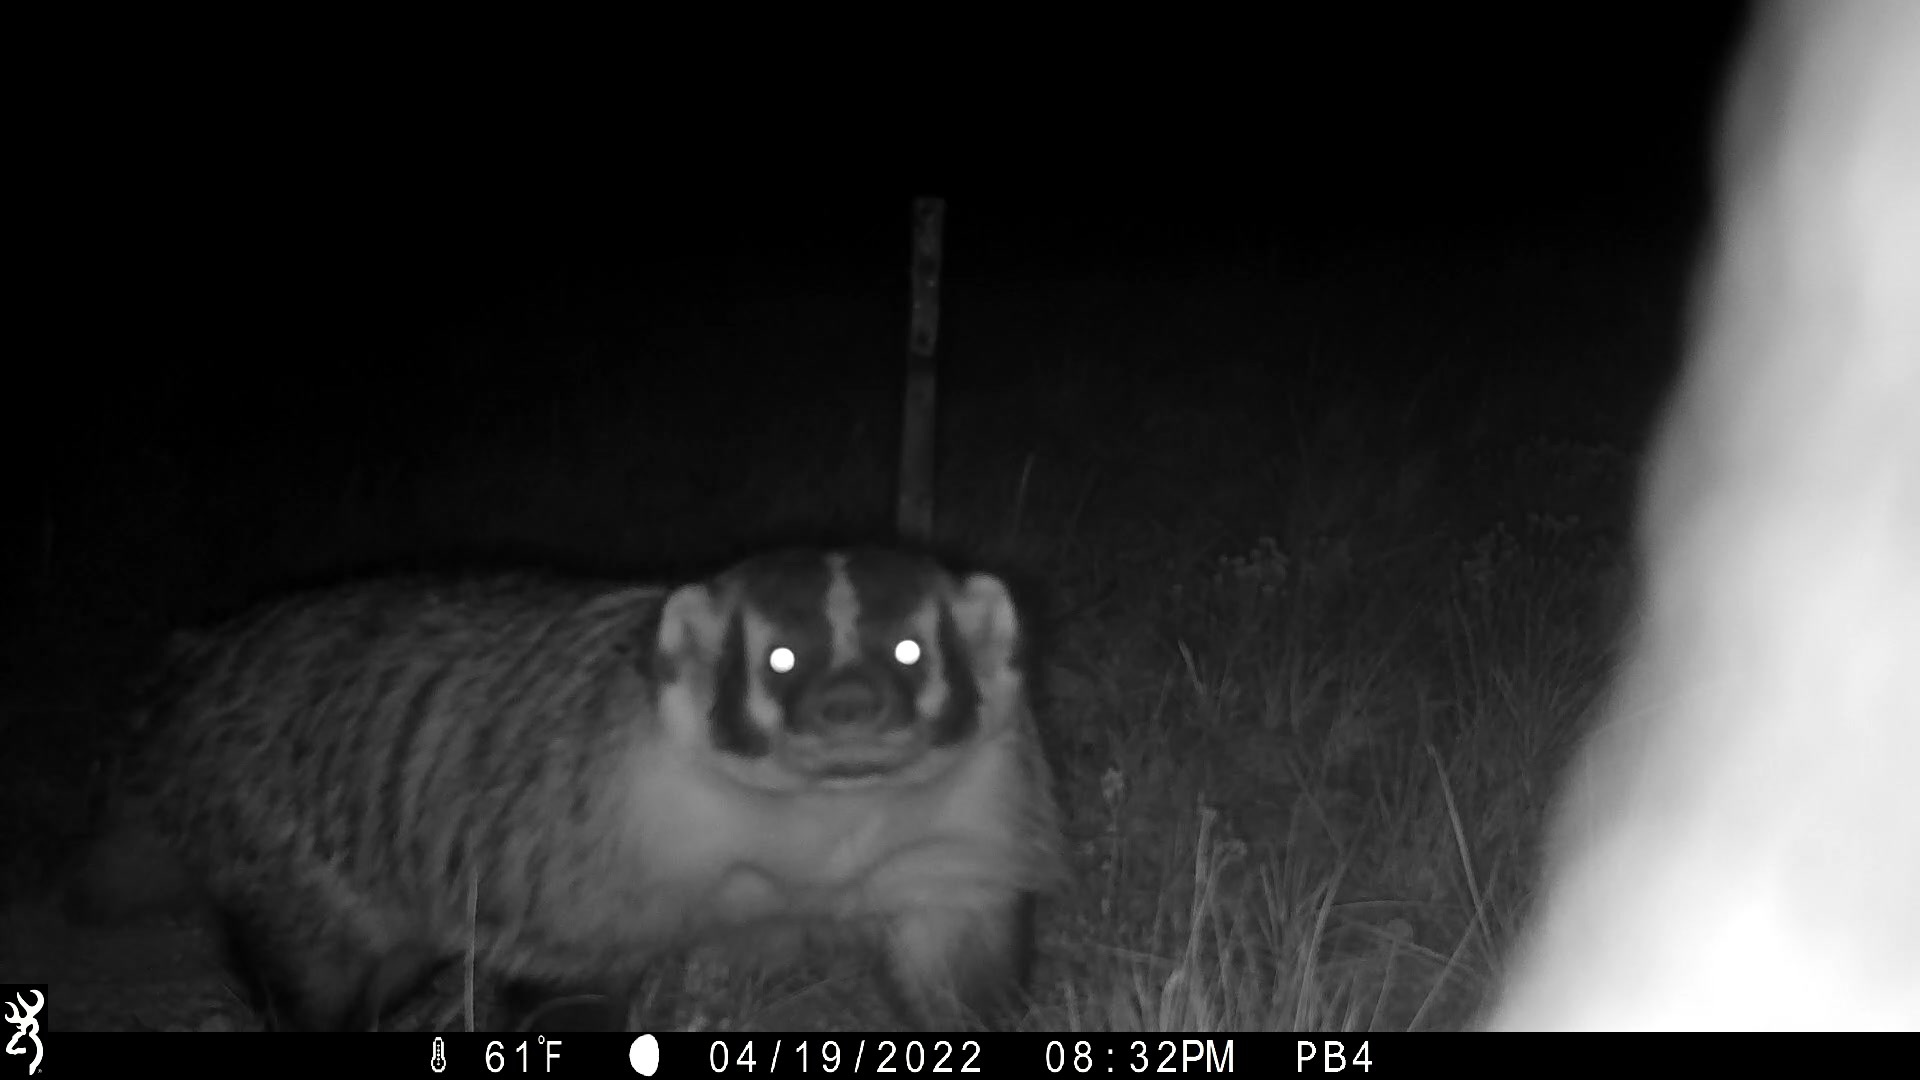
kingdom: Animalia
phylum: Chordata
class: Mammalia
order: Carnivora
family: Mustelidae
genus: Taxidea
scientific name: Taxidea taxus
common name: American badger
